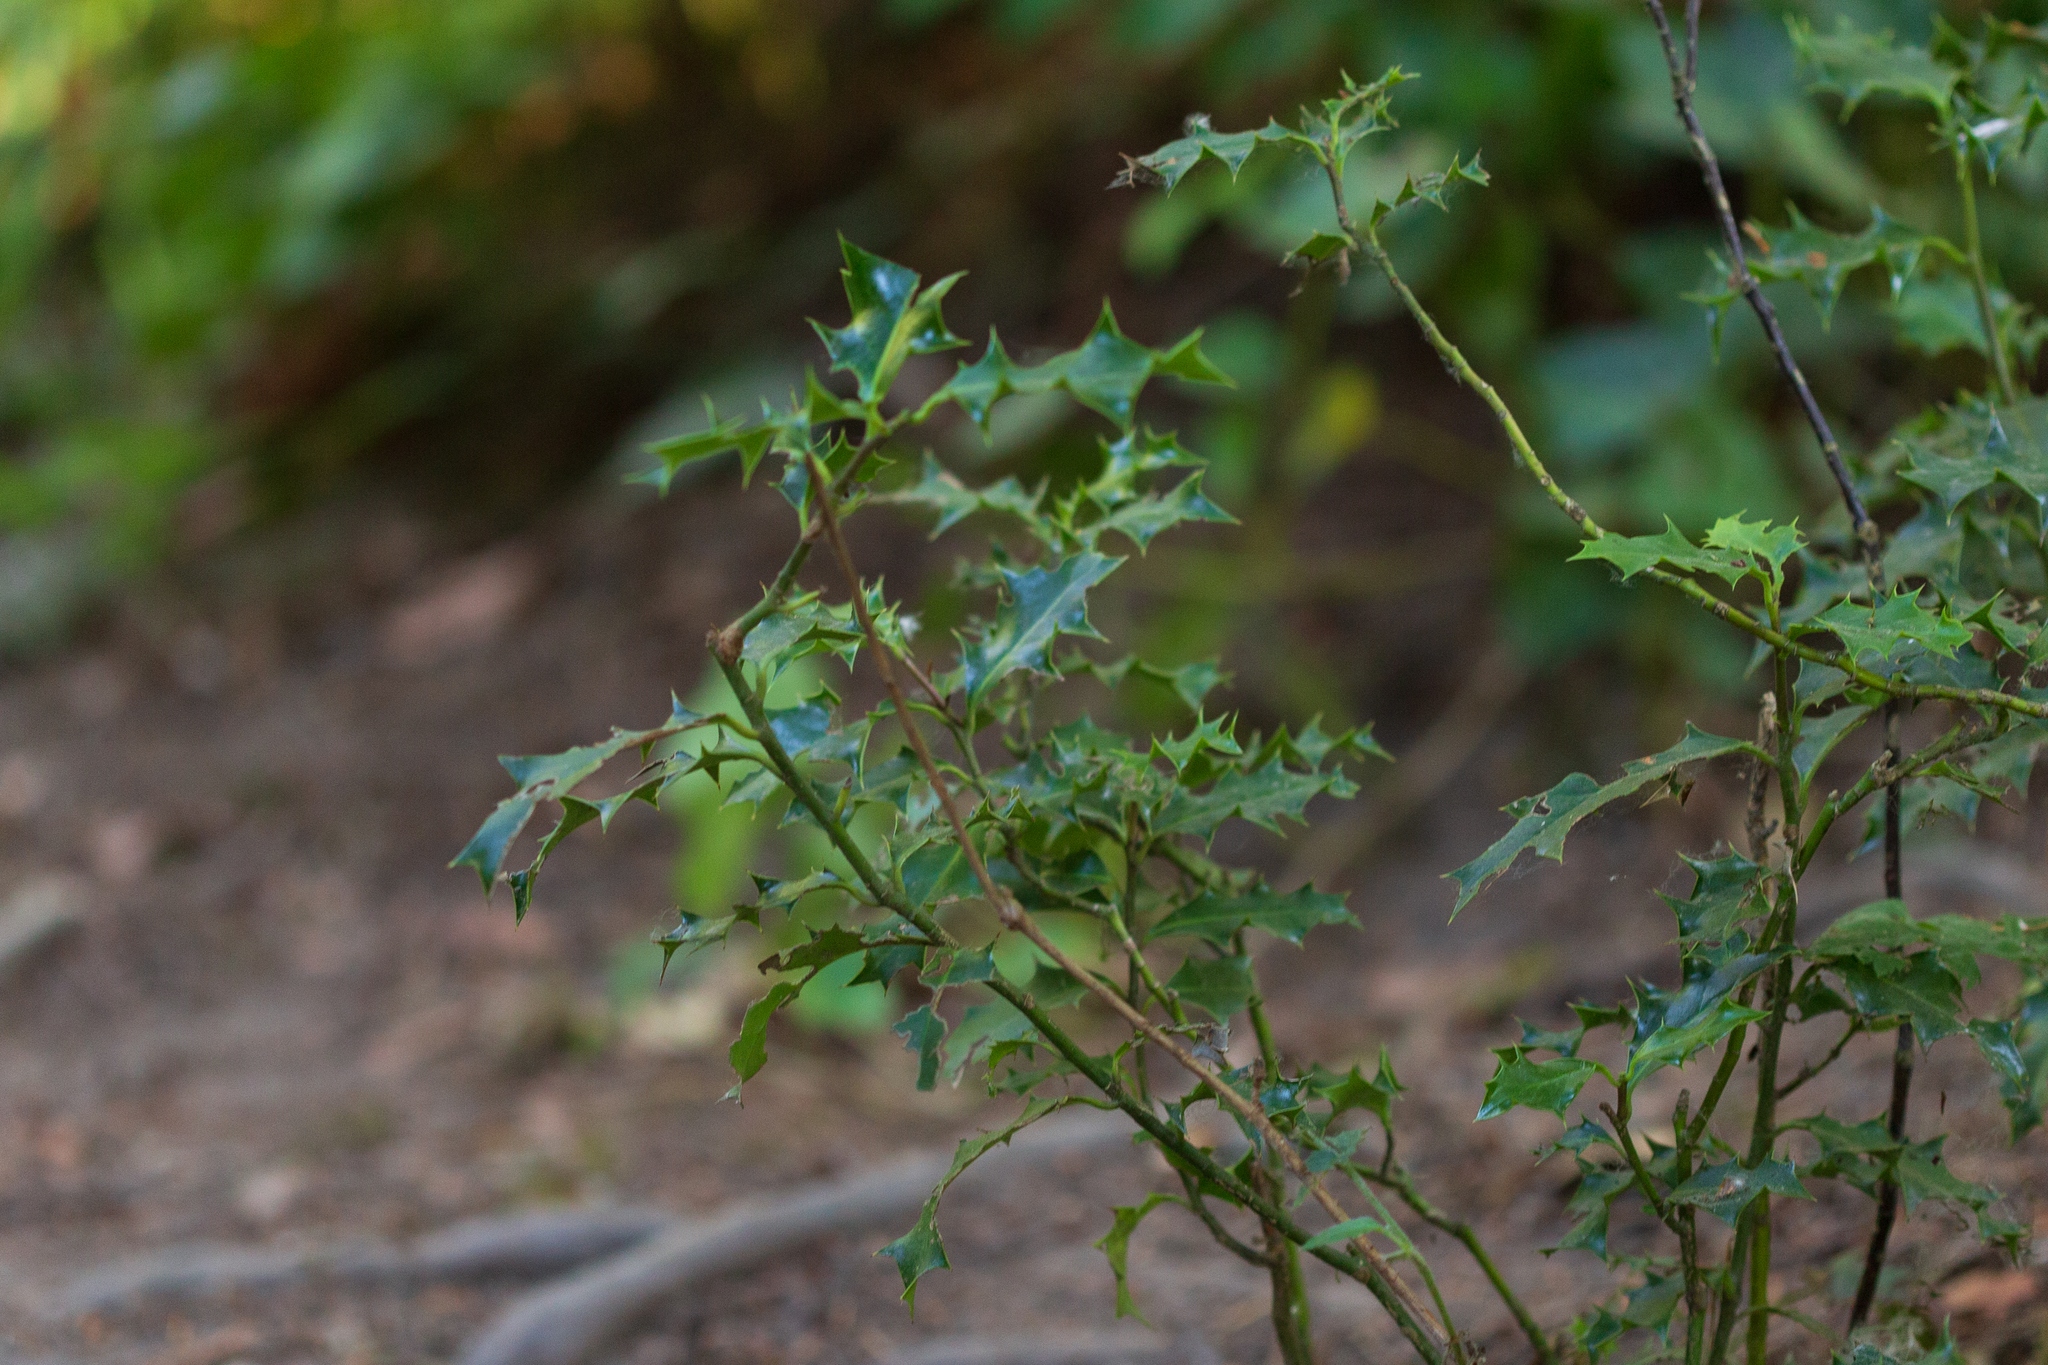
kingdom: Plantae
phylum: Tracheophyta
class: Magnoliopsida
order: Aquifoliales
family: Aquifoliaceae
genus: Ilex
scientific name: Ilex aquifolium
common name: English holly
